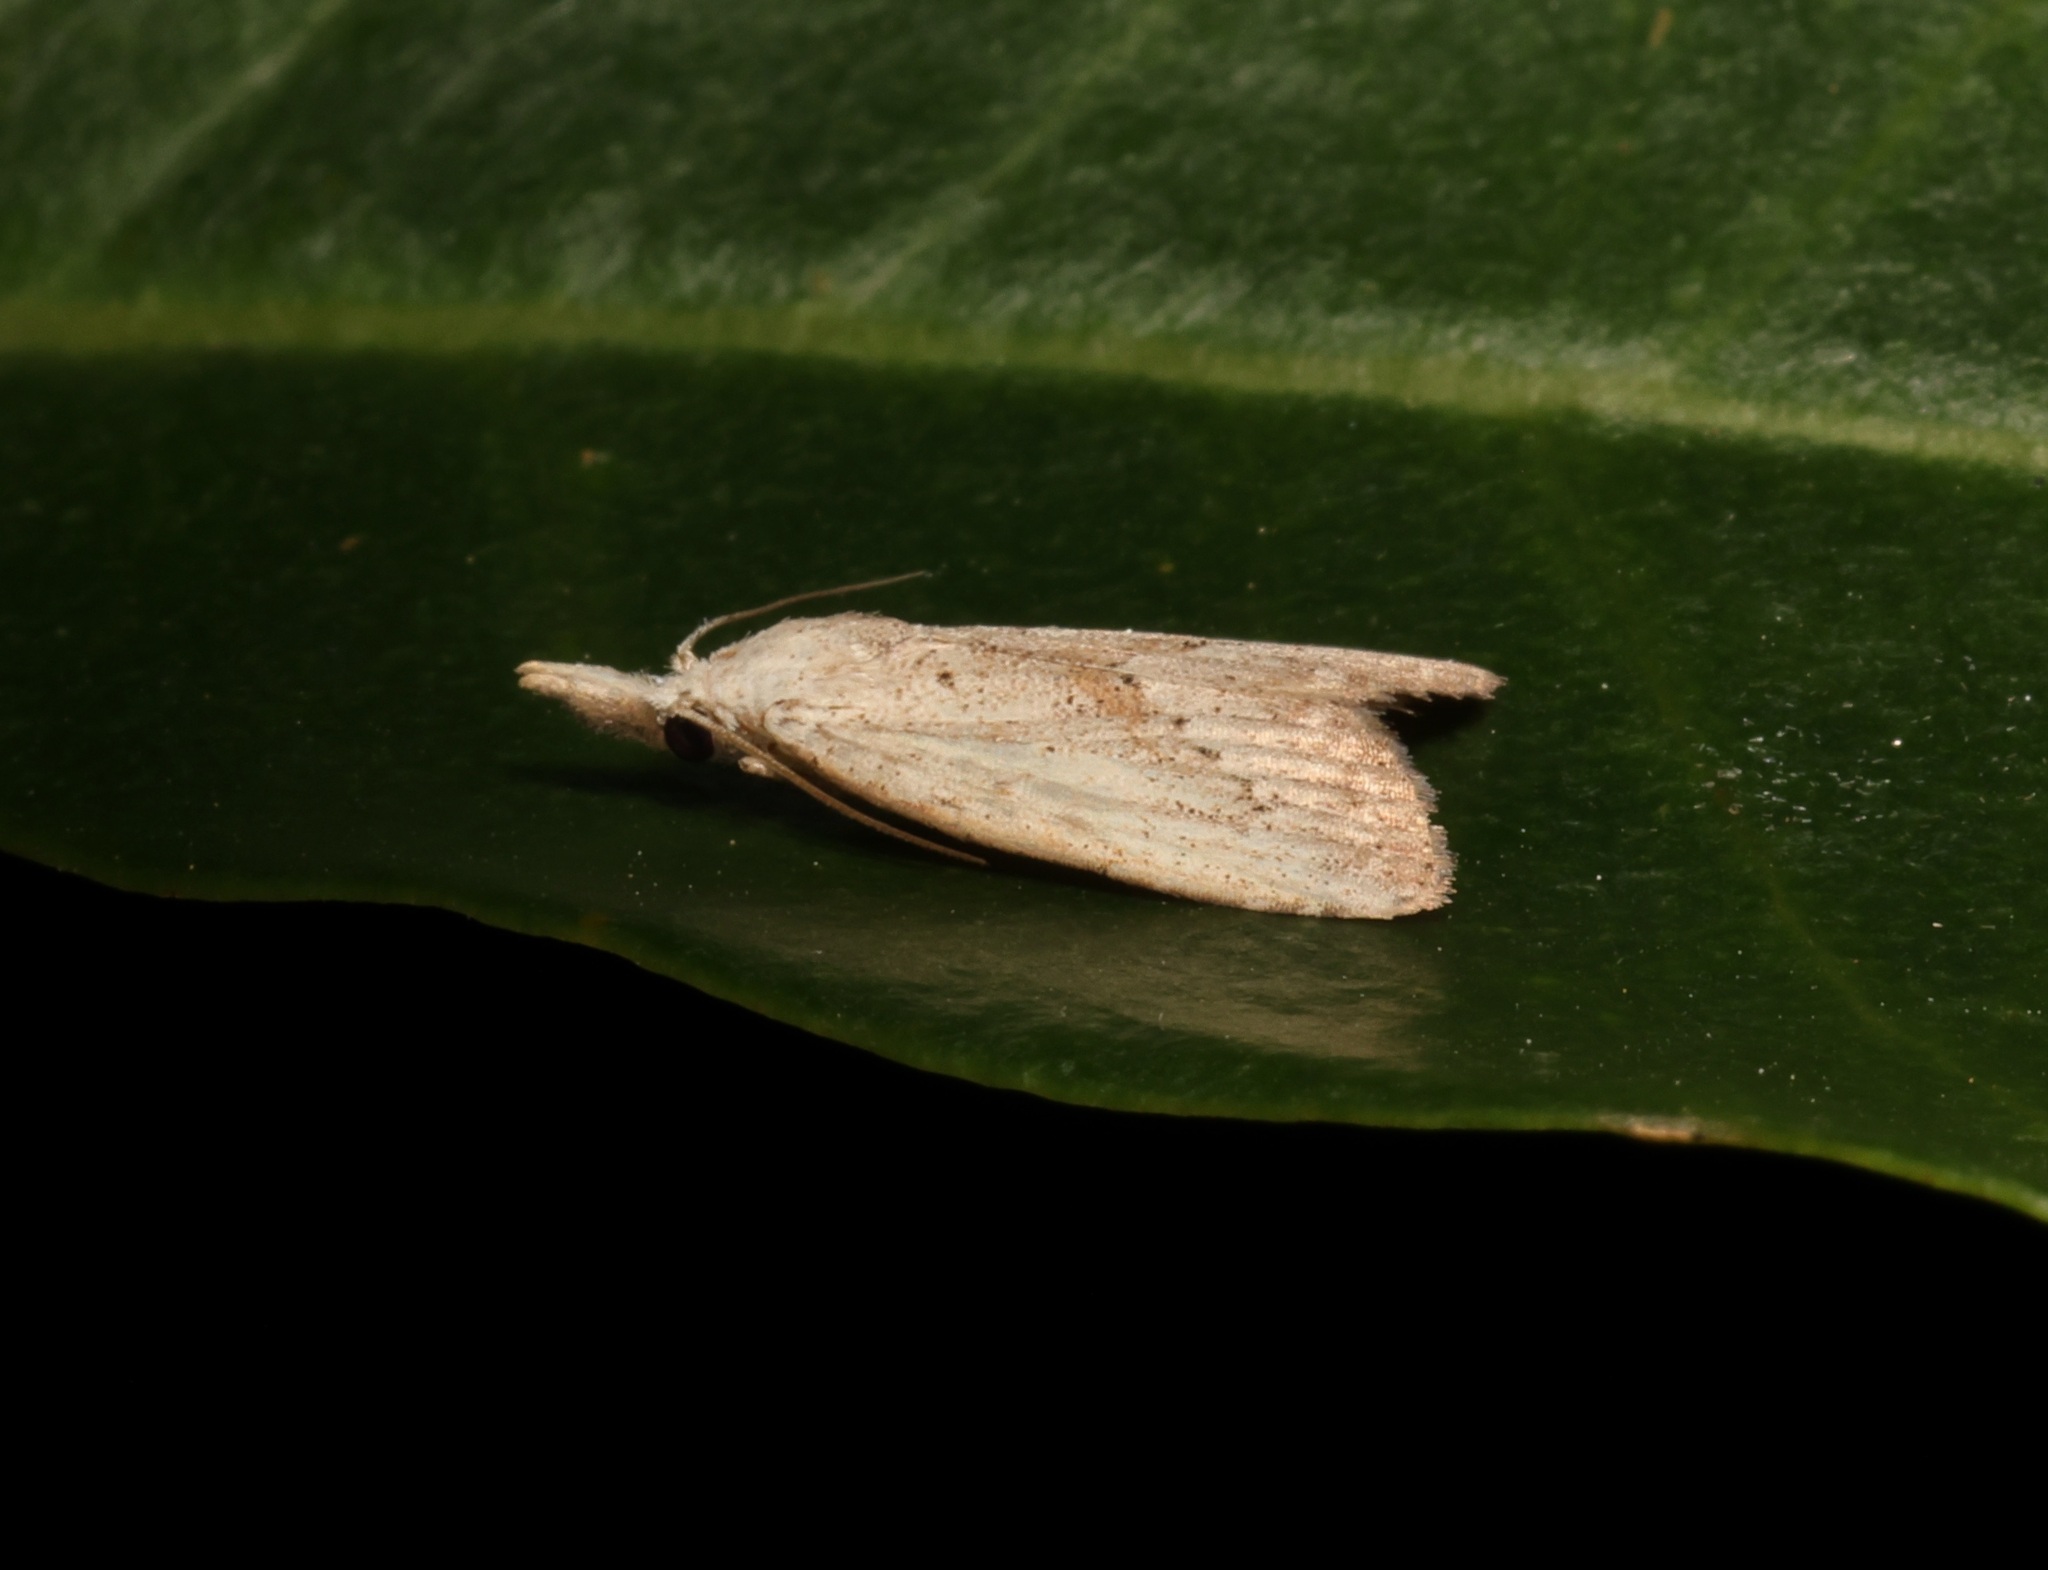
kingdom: Animalia
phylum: Arthropoda
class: Insecta
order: Lepidoptera
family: Nolidae
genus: Meganola
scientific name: Meganola brunellus
